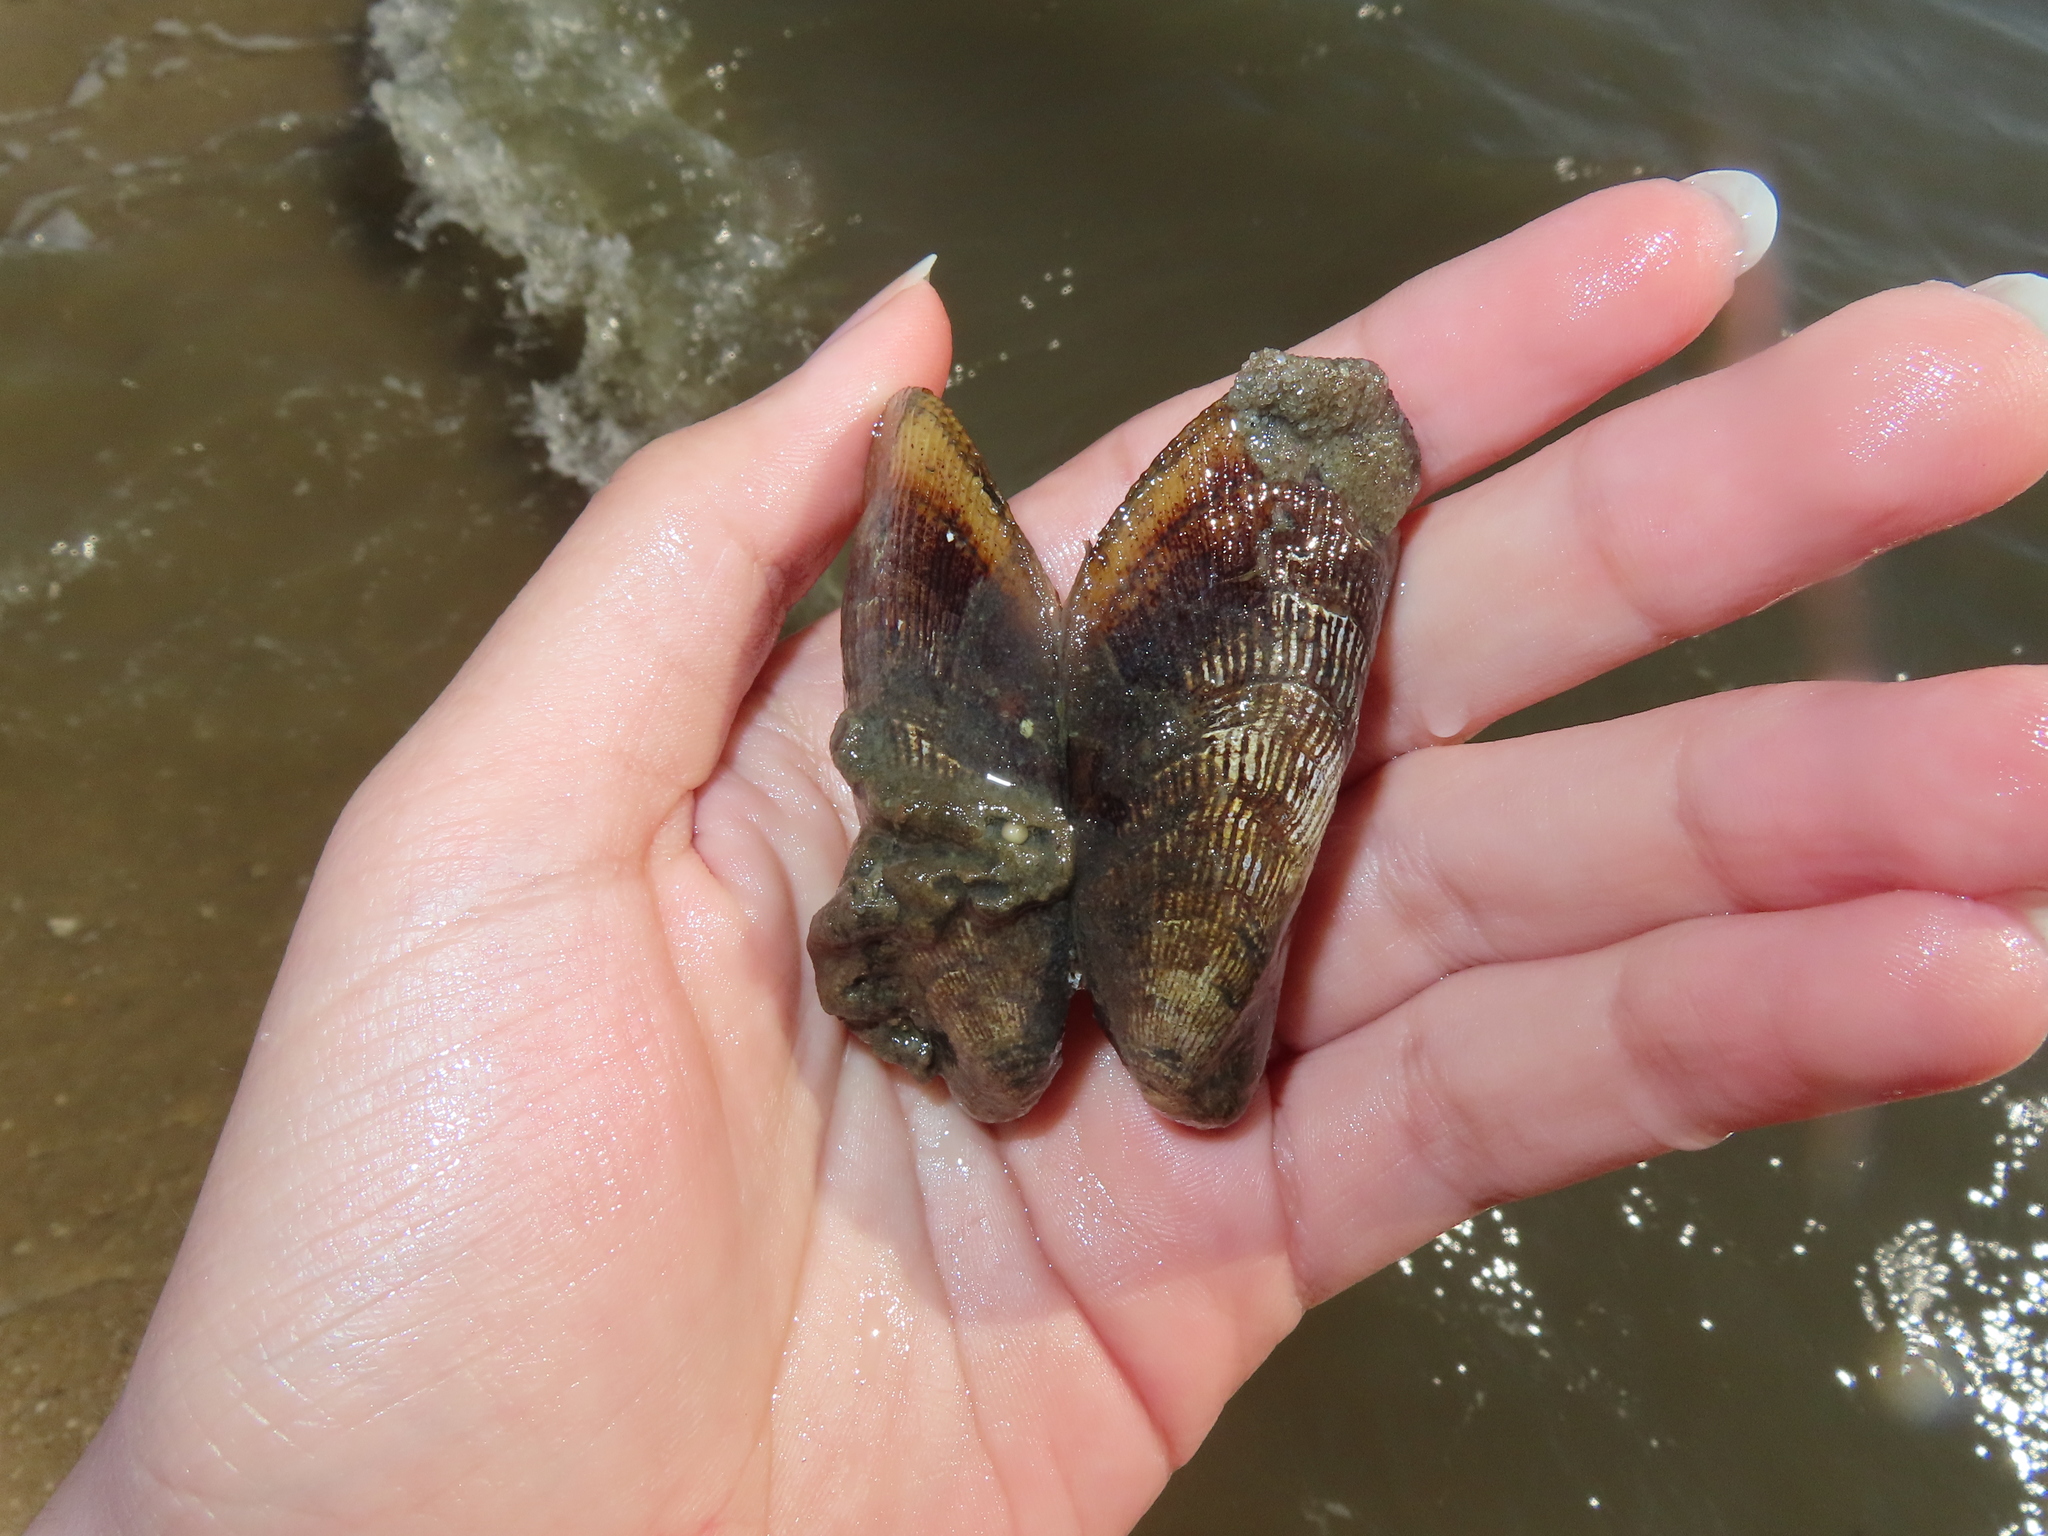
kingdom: Animalia
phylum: Mollusca
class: Bivalvia
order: Mytilida
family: Mytilidae
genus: Geukensia
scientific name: Geukensia demissa
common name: Ribbed mussel
